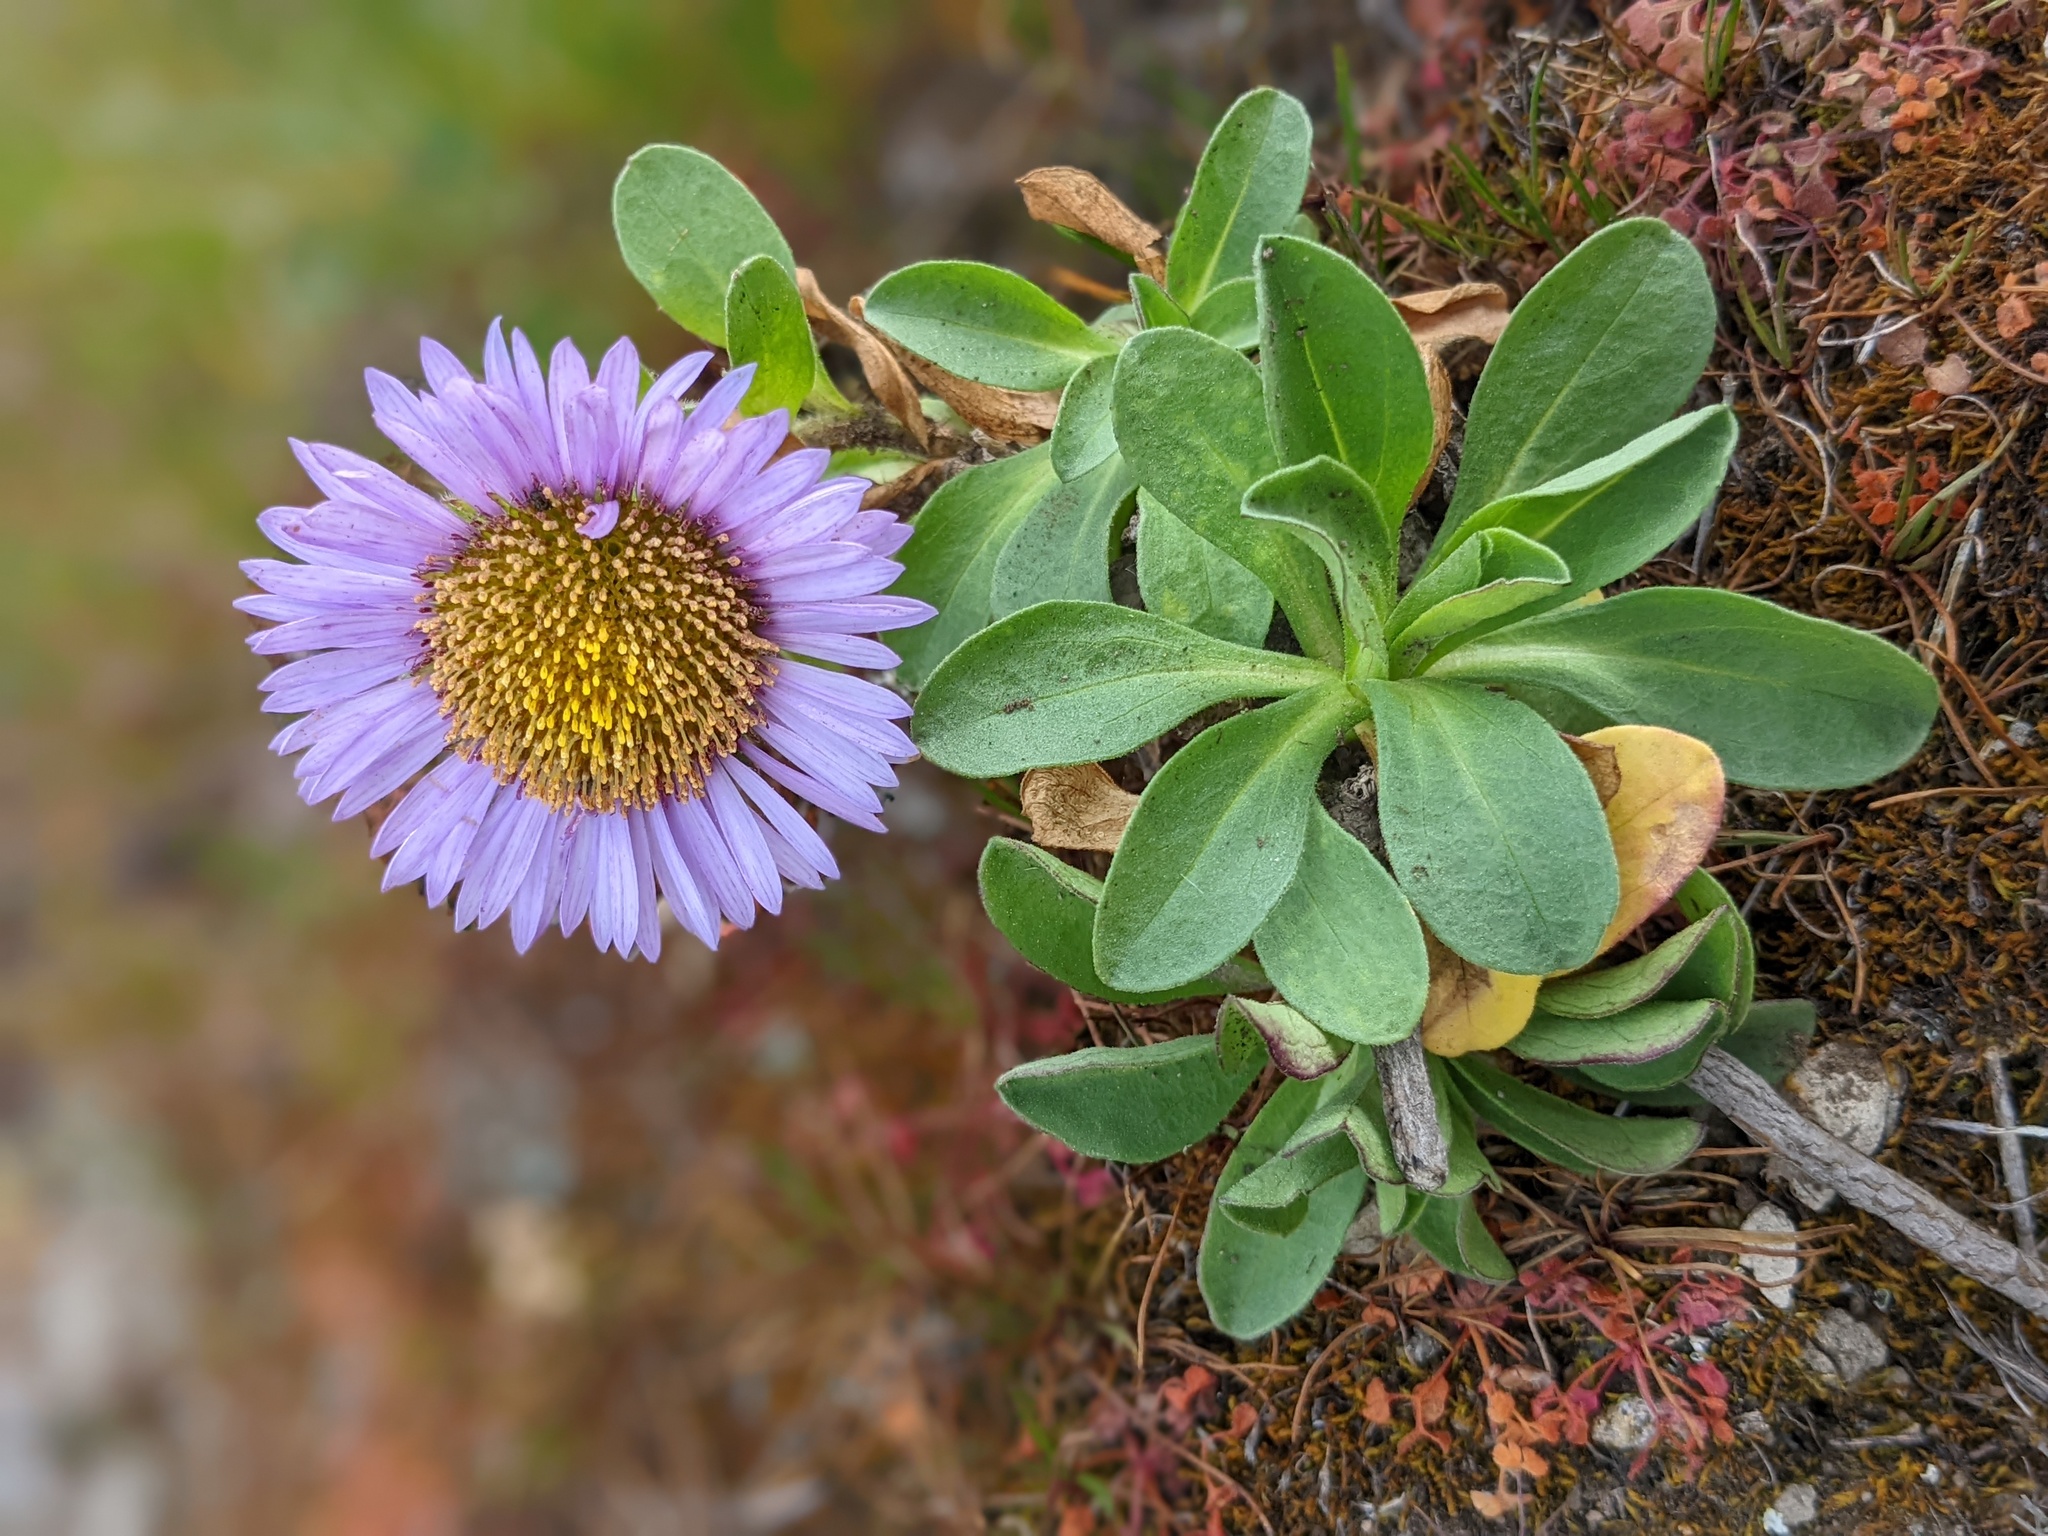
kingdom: Plantae
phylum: Tracheophyta
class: Magnoliopsida
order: Asterales
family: Asteraceae
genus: Erigeron
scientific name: Erigeron glaucus
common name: Seaside daisy
